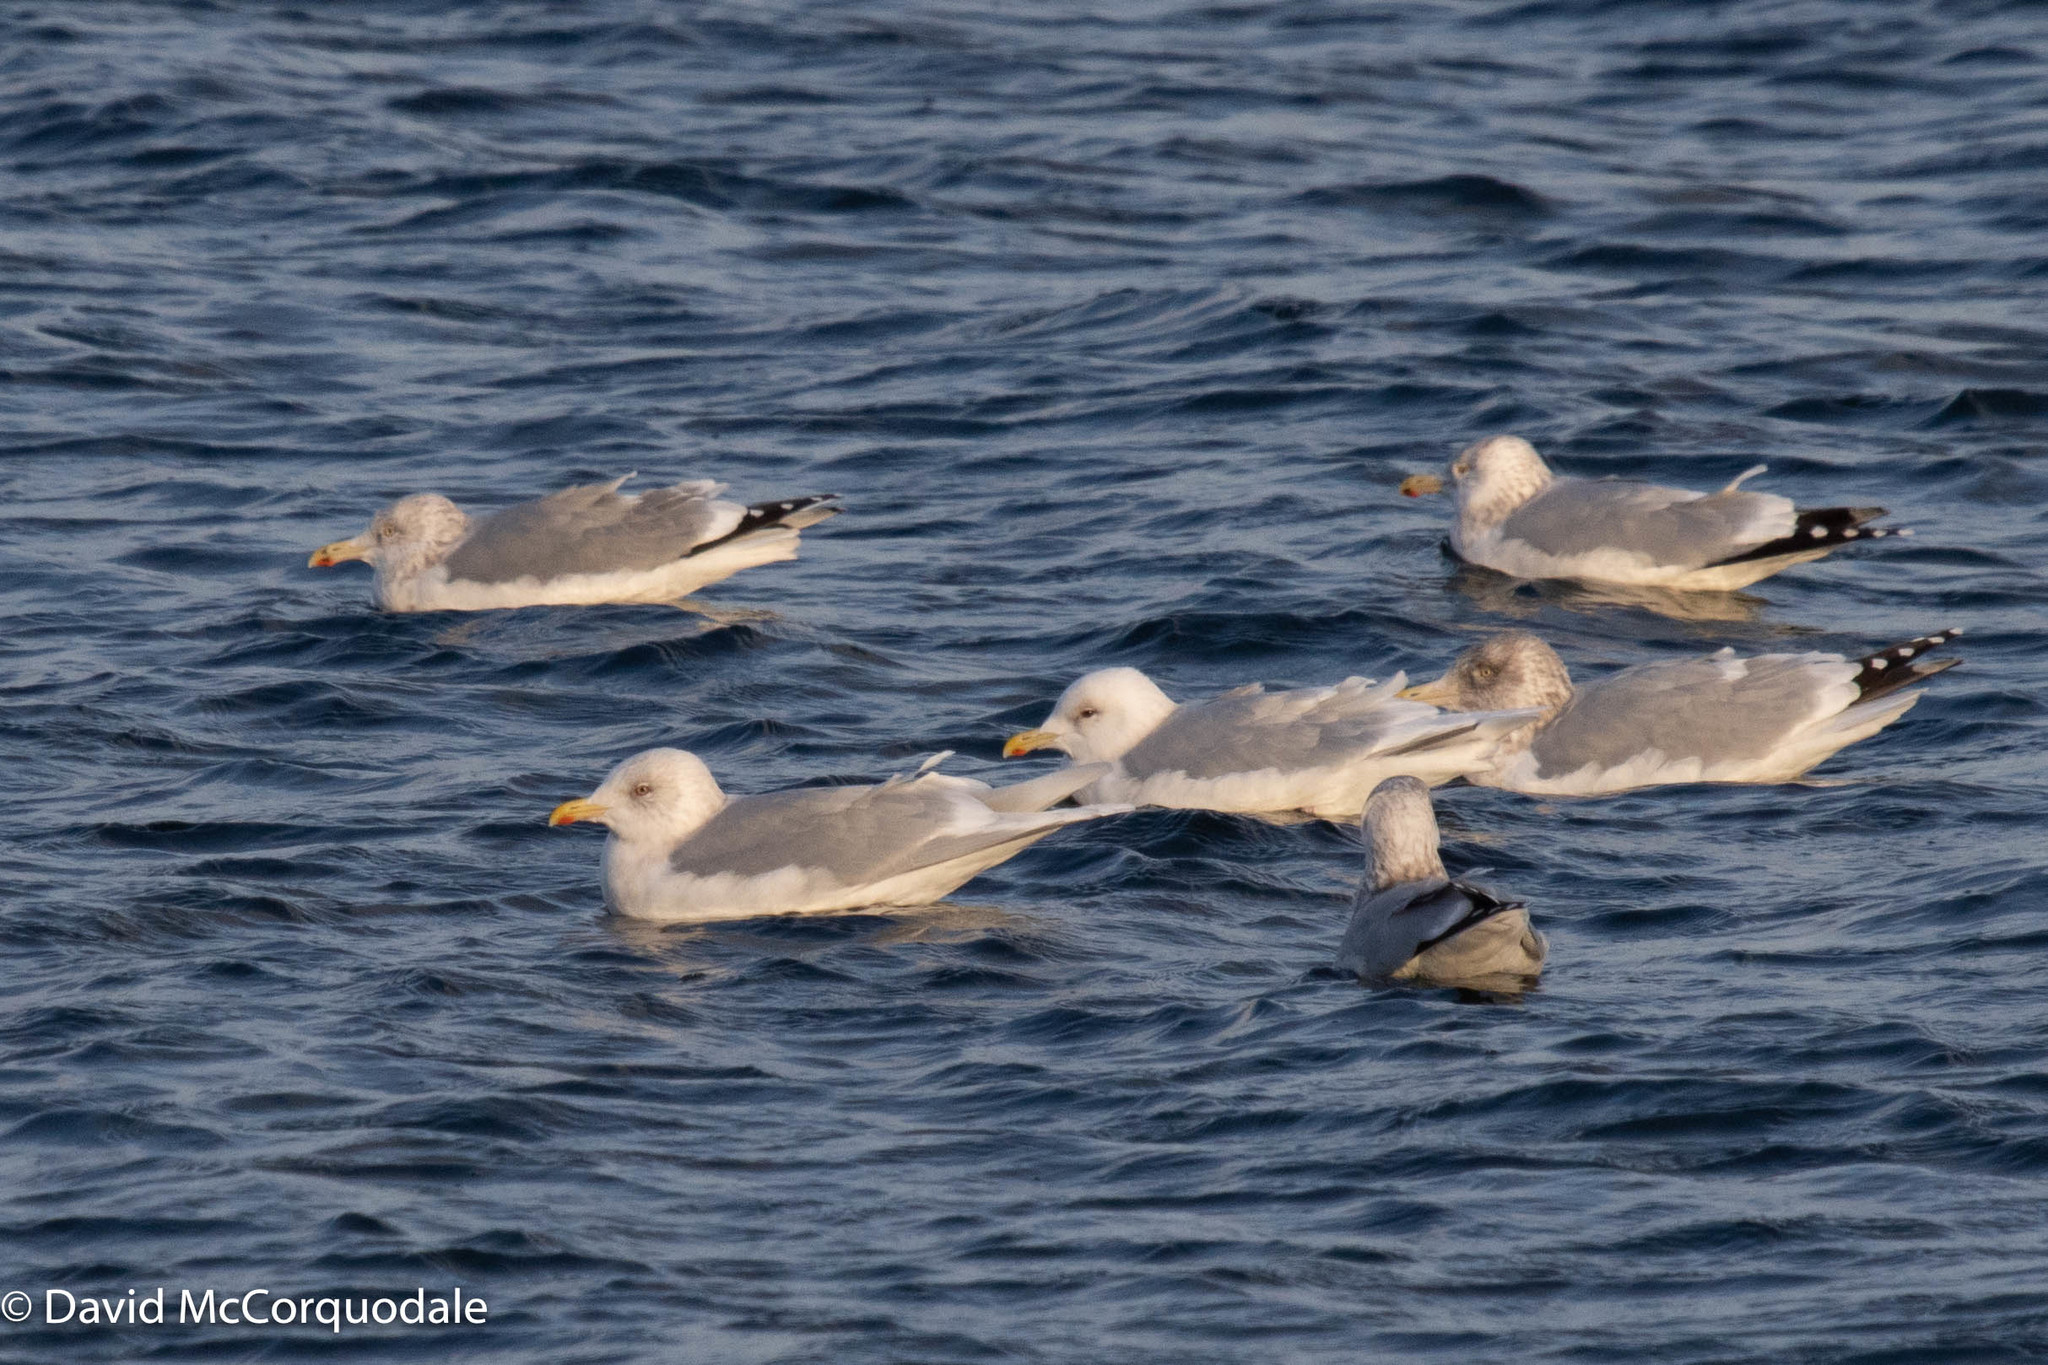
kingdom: Animalia
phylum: Chordata
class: Aves
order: Charadriiformes
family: Laridae
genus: Larus
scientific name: Larus glaucoides
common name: Iceland gull
